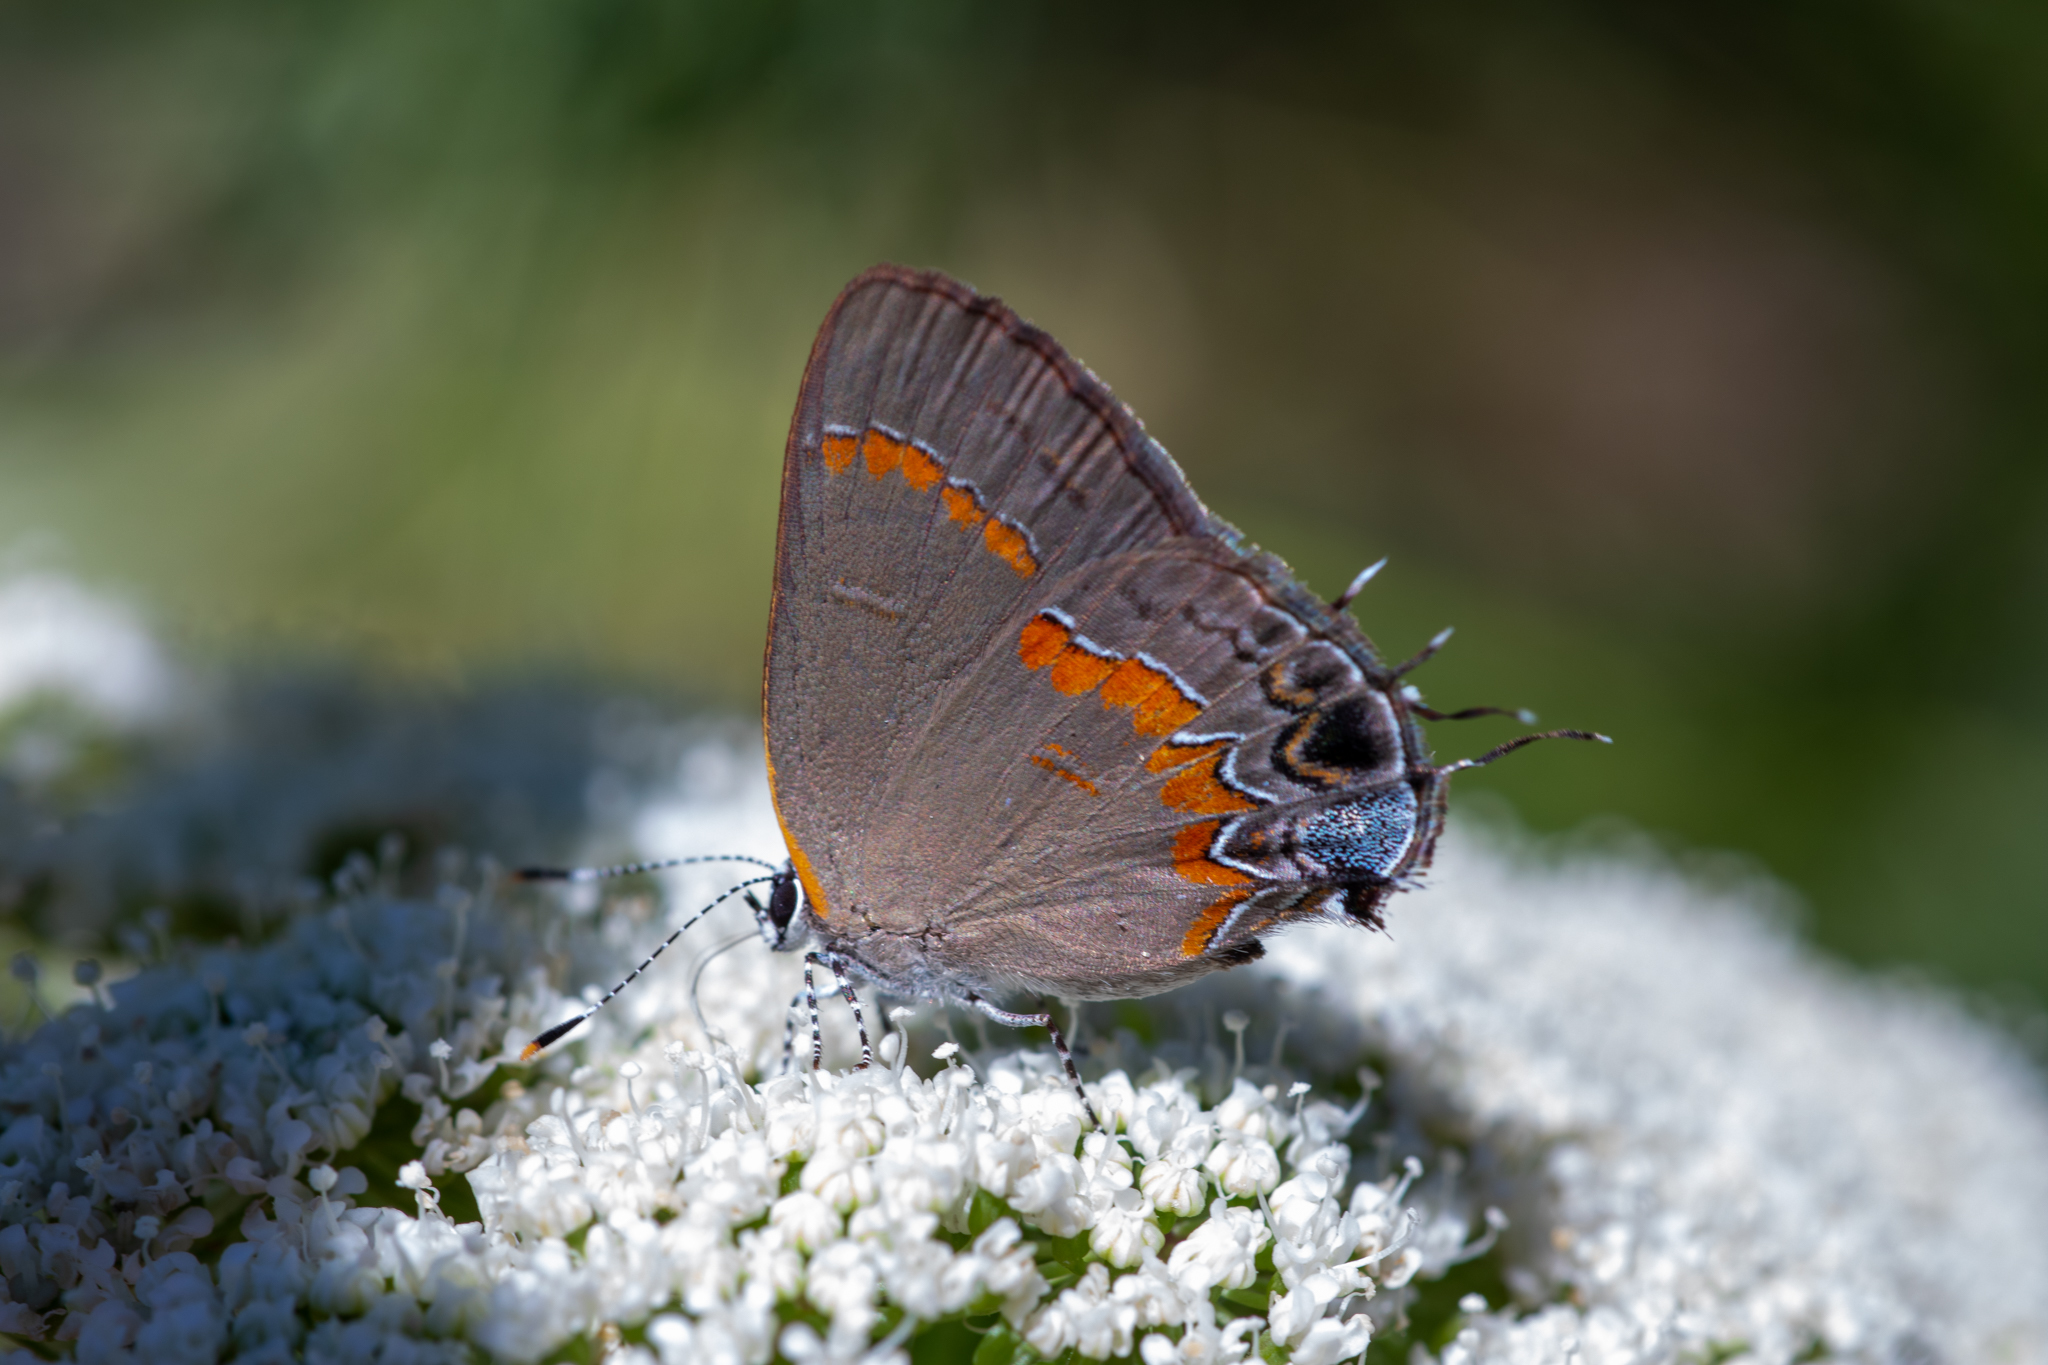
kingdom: Animalia
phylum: Arthropoda
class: Insecta
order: Lepidoptera
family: Lycaenidae
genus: Calycopis
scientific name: Calycopis cecrops
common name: Red-banded hairstreak
